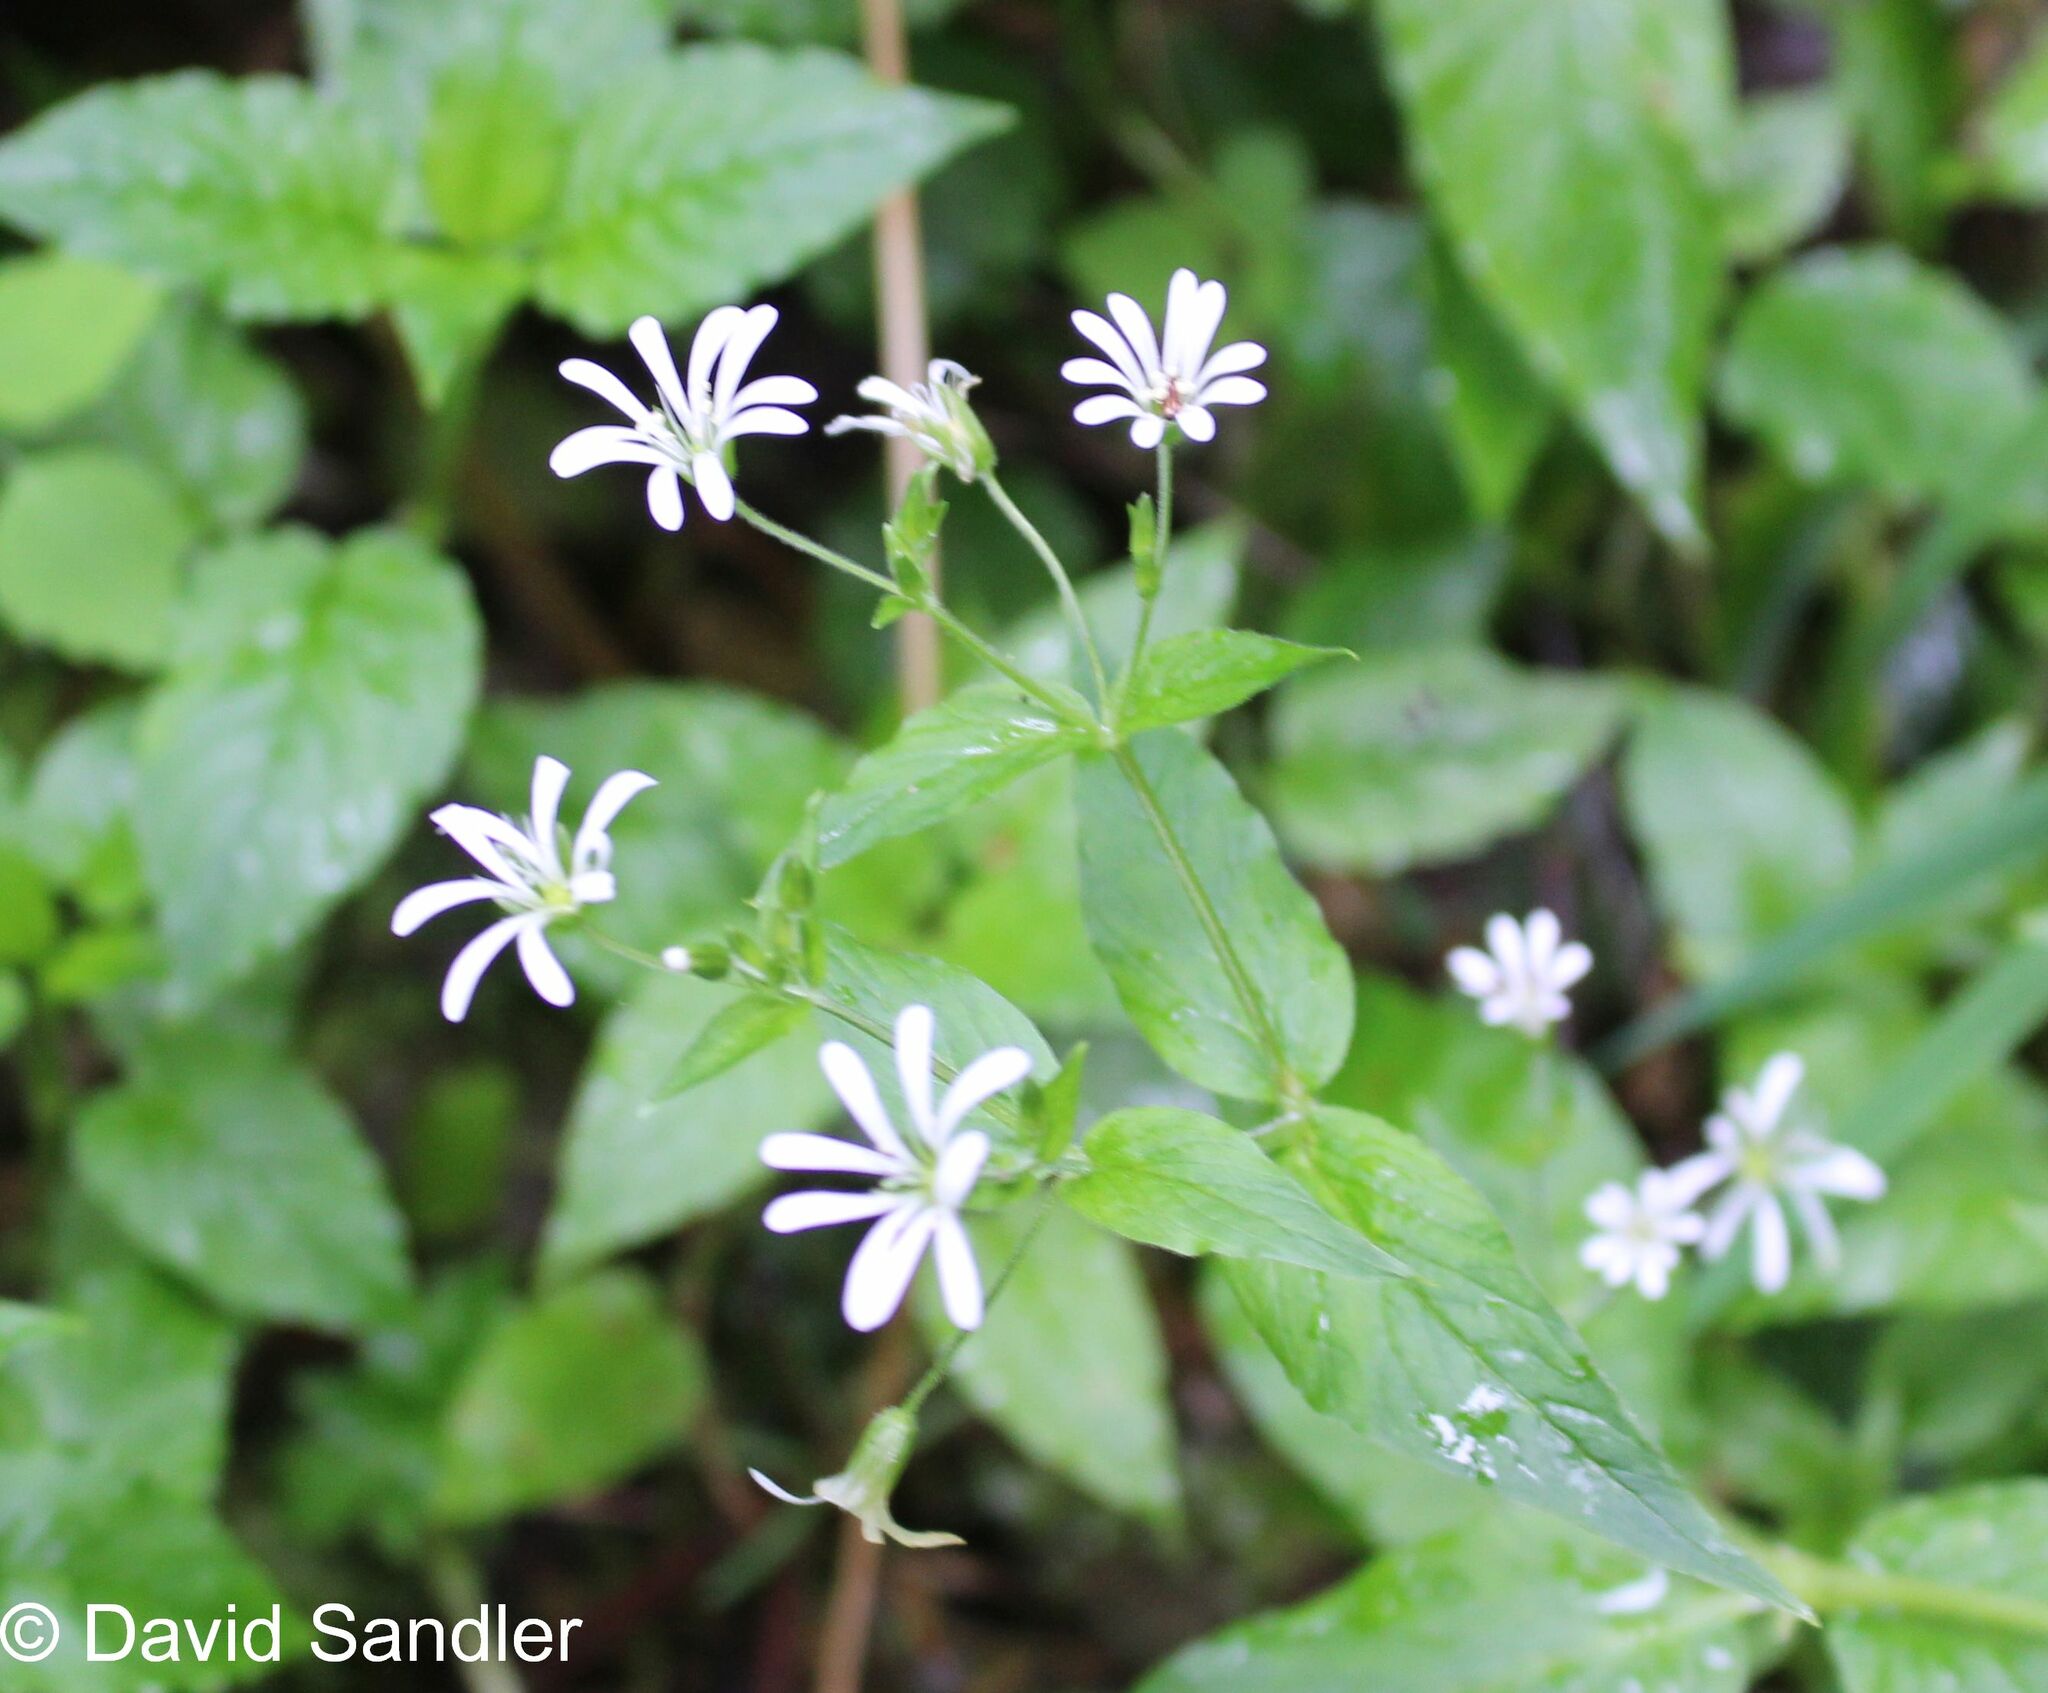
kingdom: Plantae
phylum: Tracheophyta
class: Magnoliopsida
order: Caryophyllales
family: Caryophyllaceae
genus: Stellaria
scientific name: Stellaria nemorum
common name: Wood stitchwort
